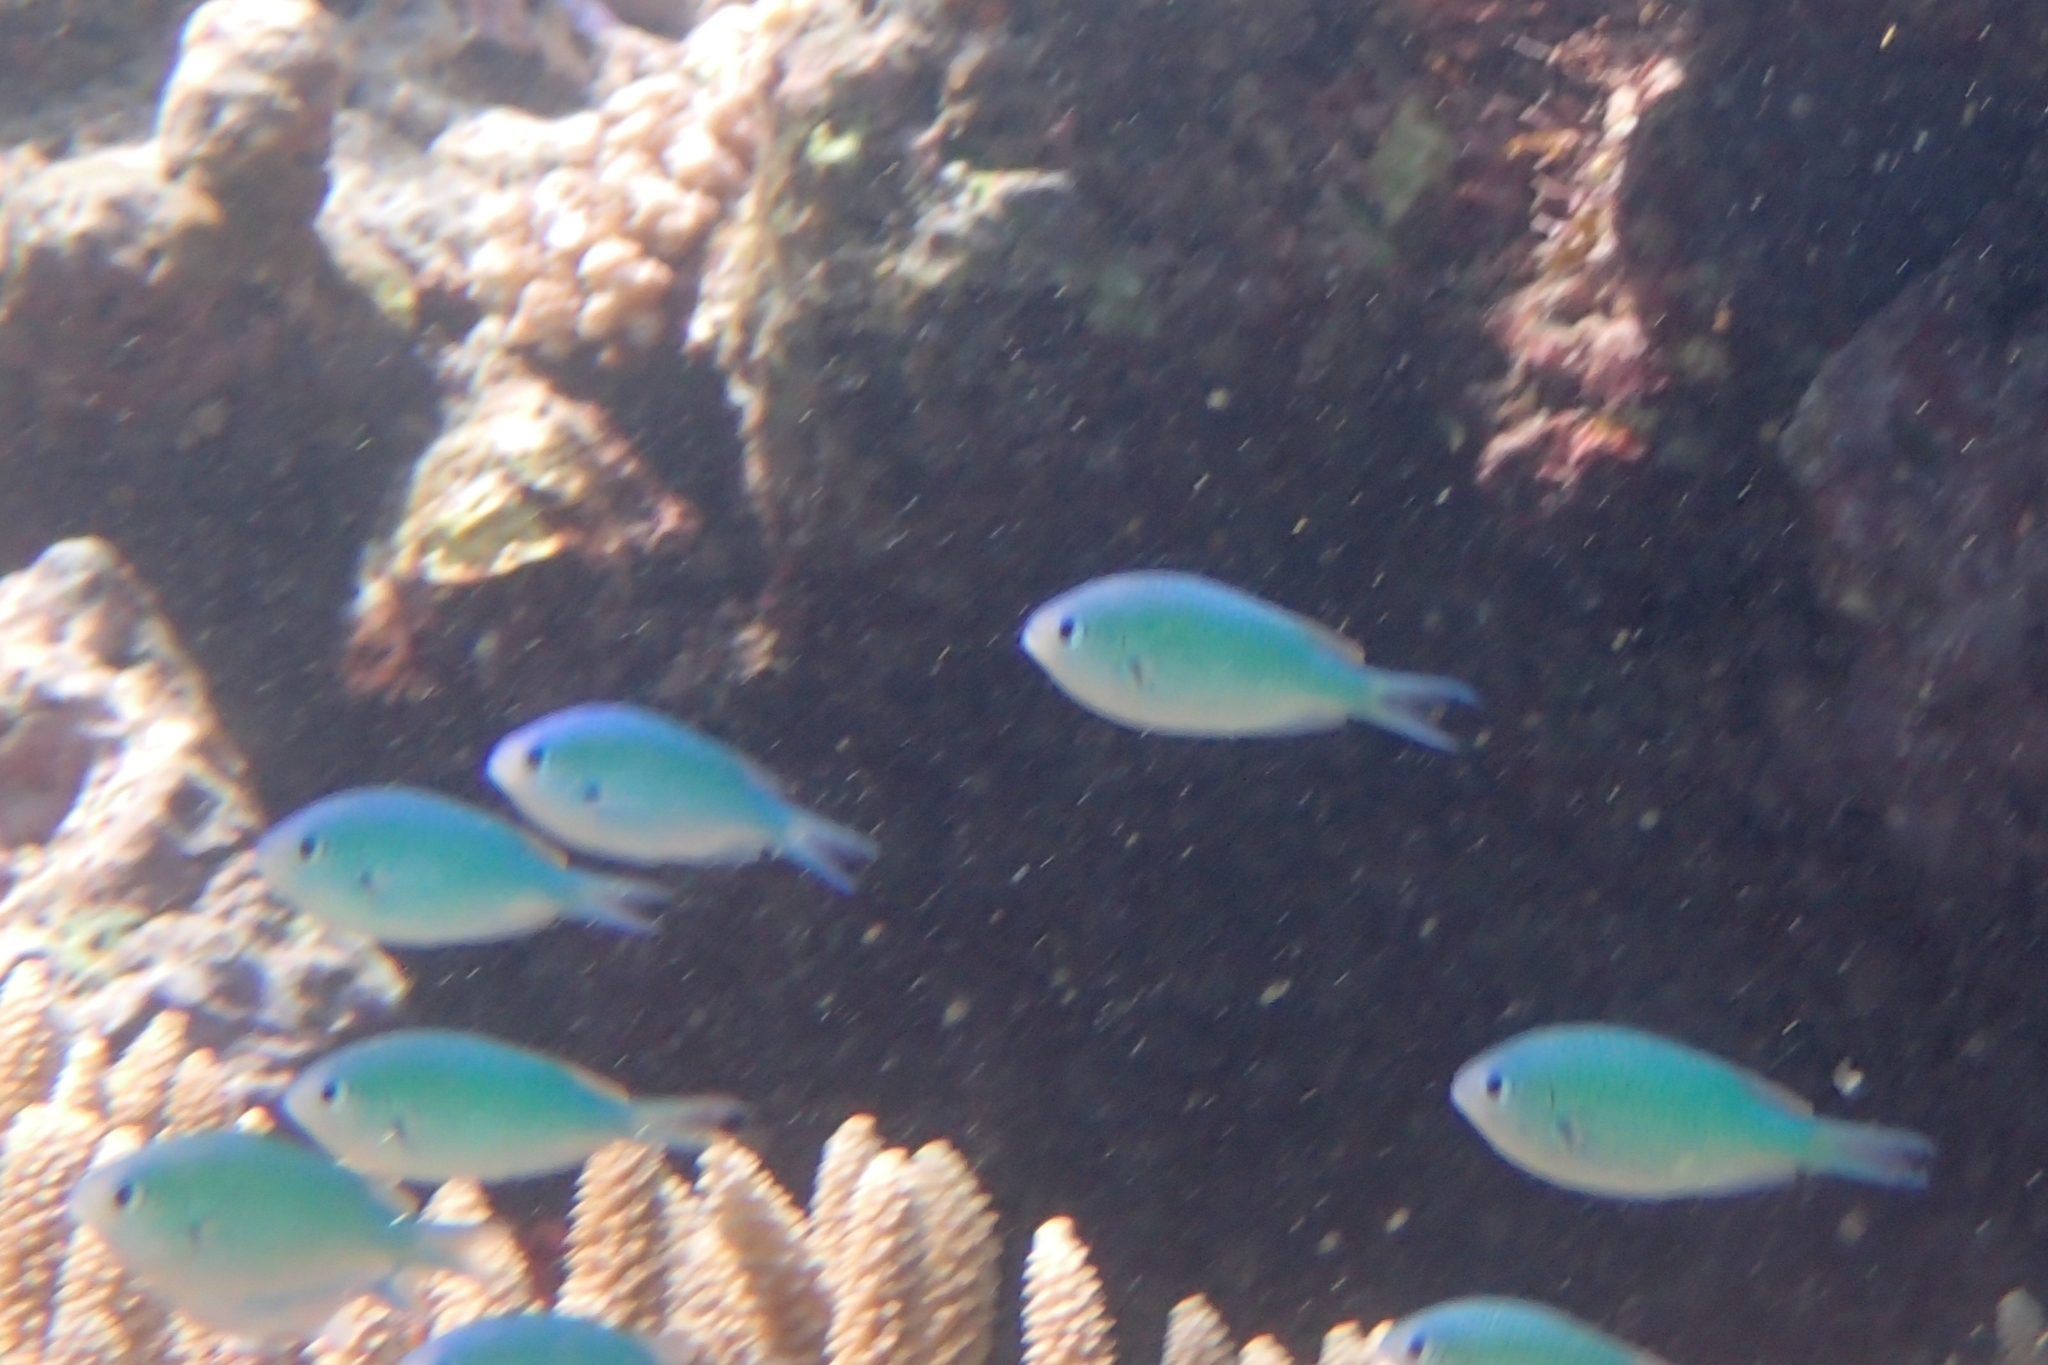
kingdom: Animalia
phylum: Chordata
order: Perciformes
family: Pomacentridae
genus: Chromis
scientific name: Chromis viridis
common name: Blue-green chromis
